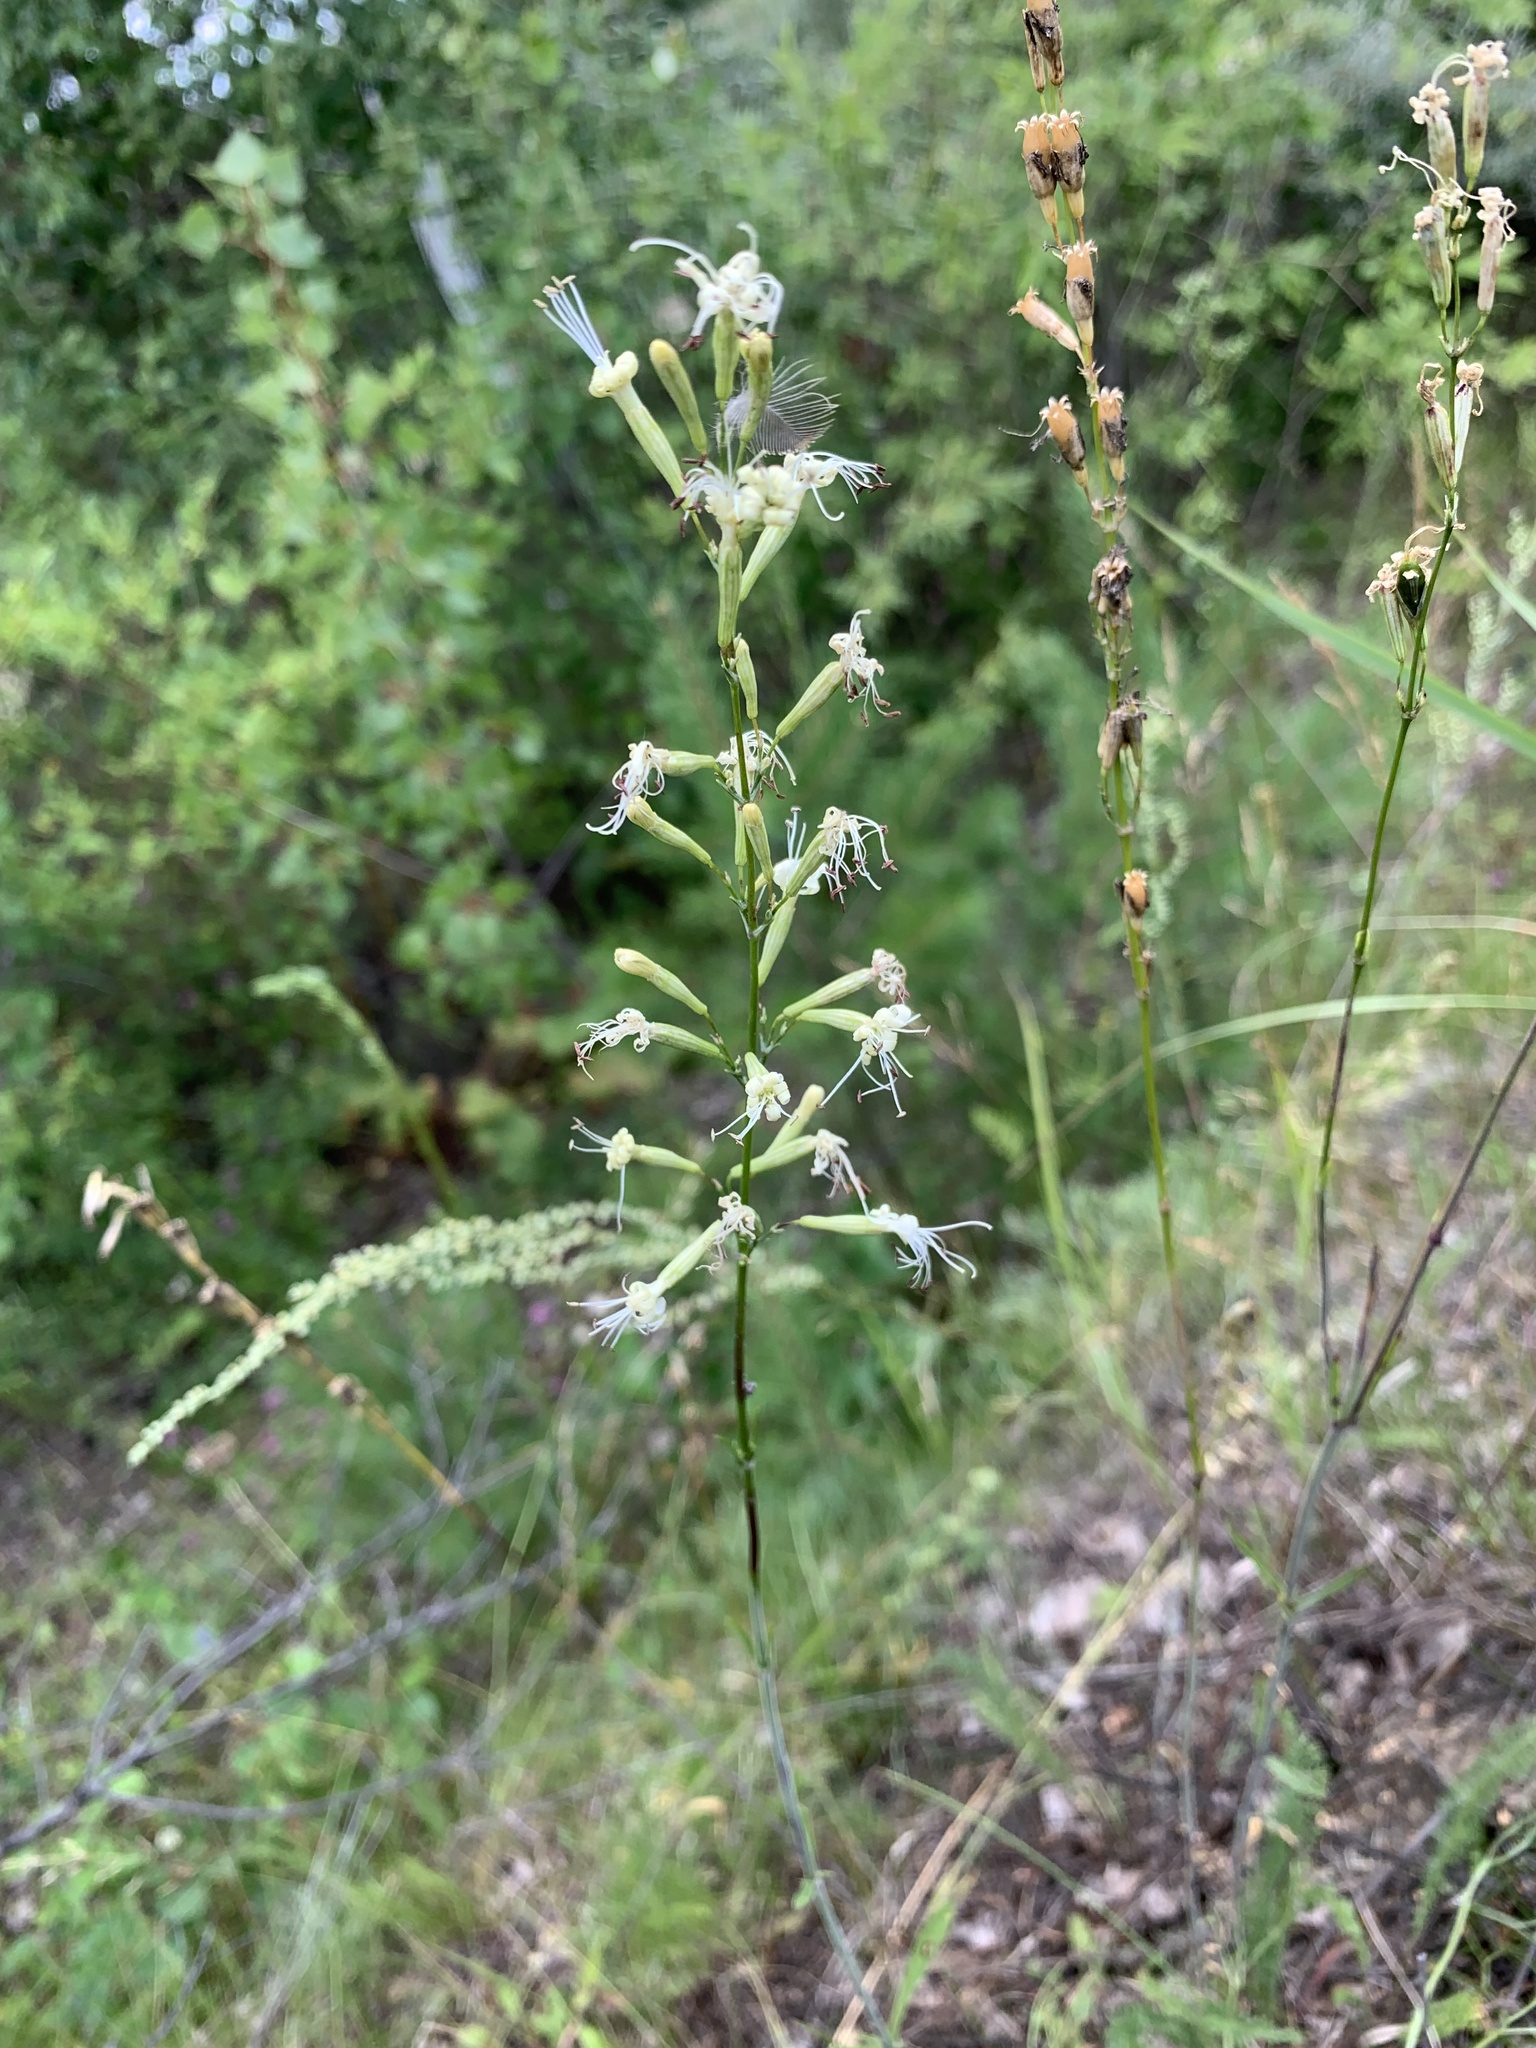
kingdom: Plantae
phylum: Tracheophyta
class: Magnoliopsida
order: Caryophyllales
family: Caryophyllaceae
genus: Silene
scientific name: Silene multiflora
